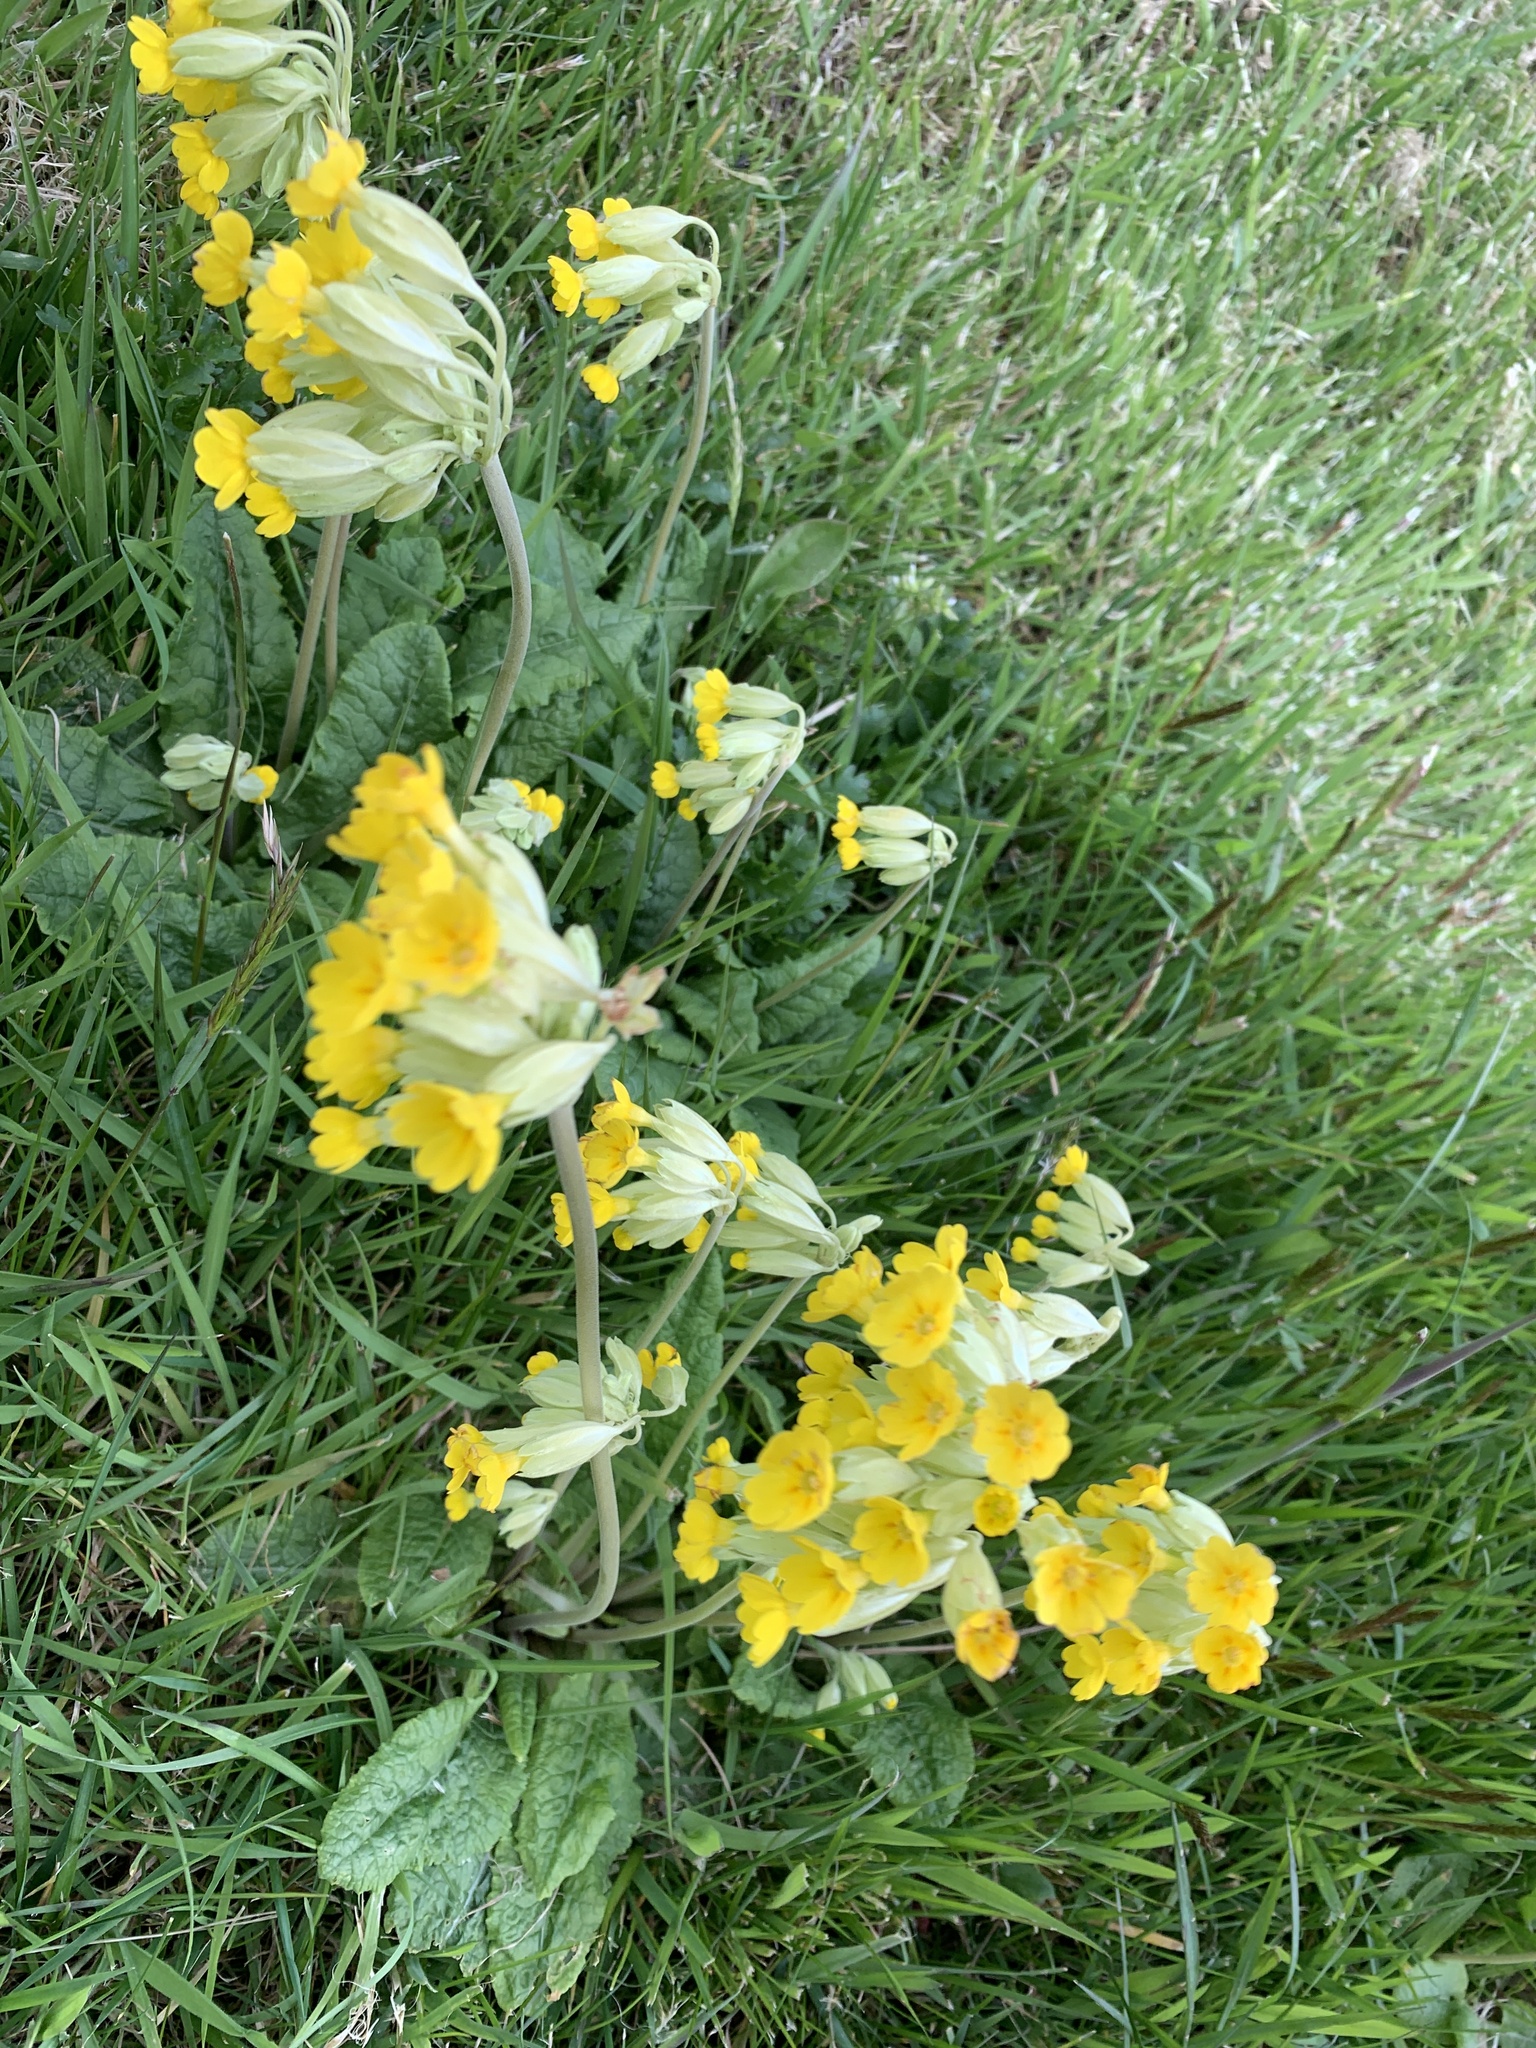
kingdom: Plantae
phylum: Tracheophyta
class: Magnoliopsida
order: Ericales
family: Primulaceae
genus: Primula
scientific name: Primula veris
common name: Cowslip
